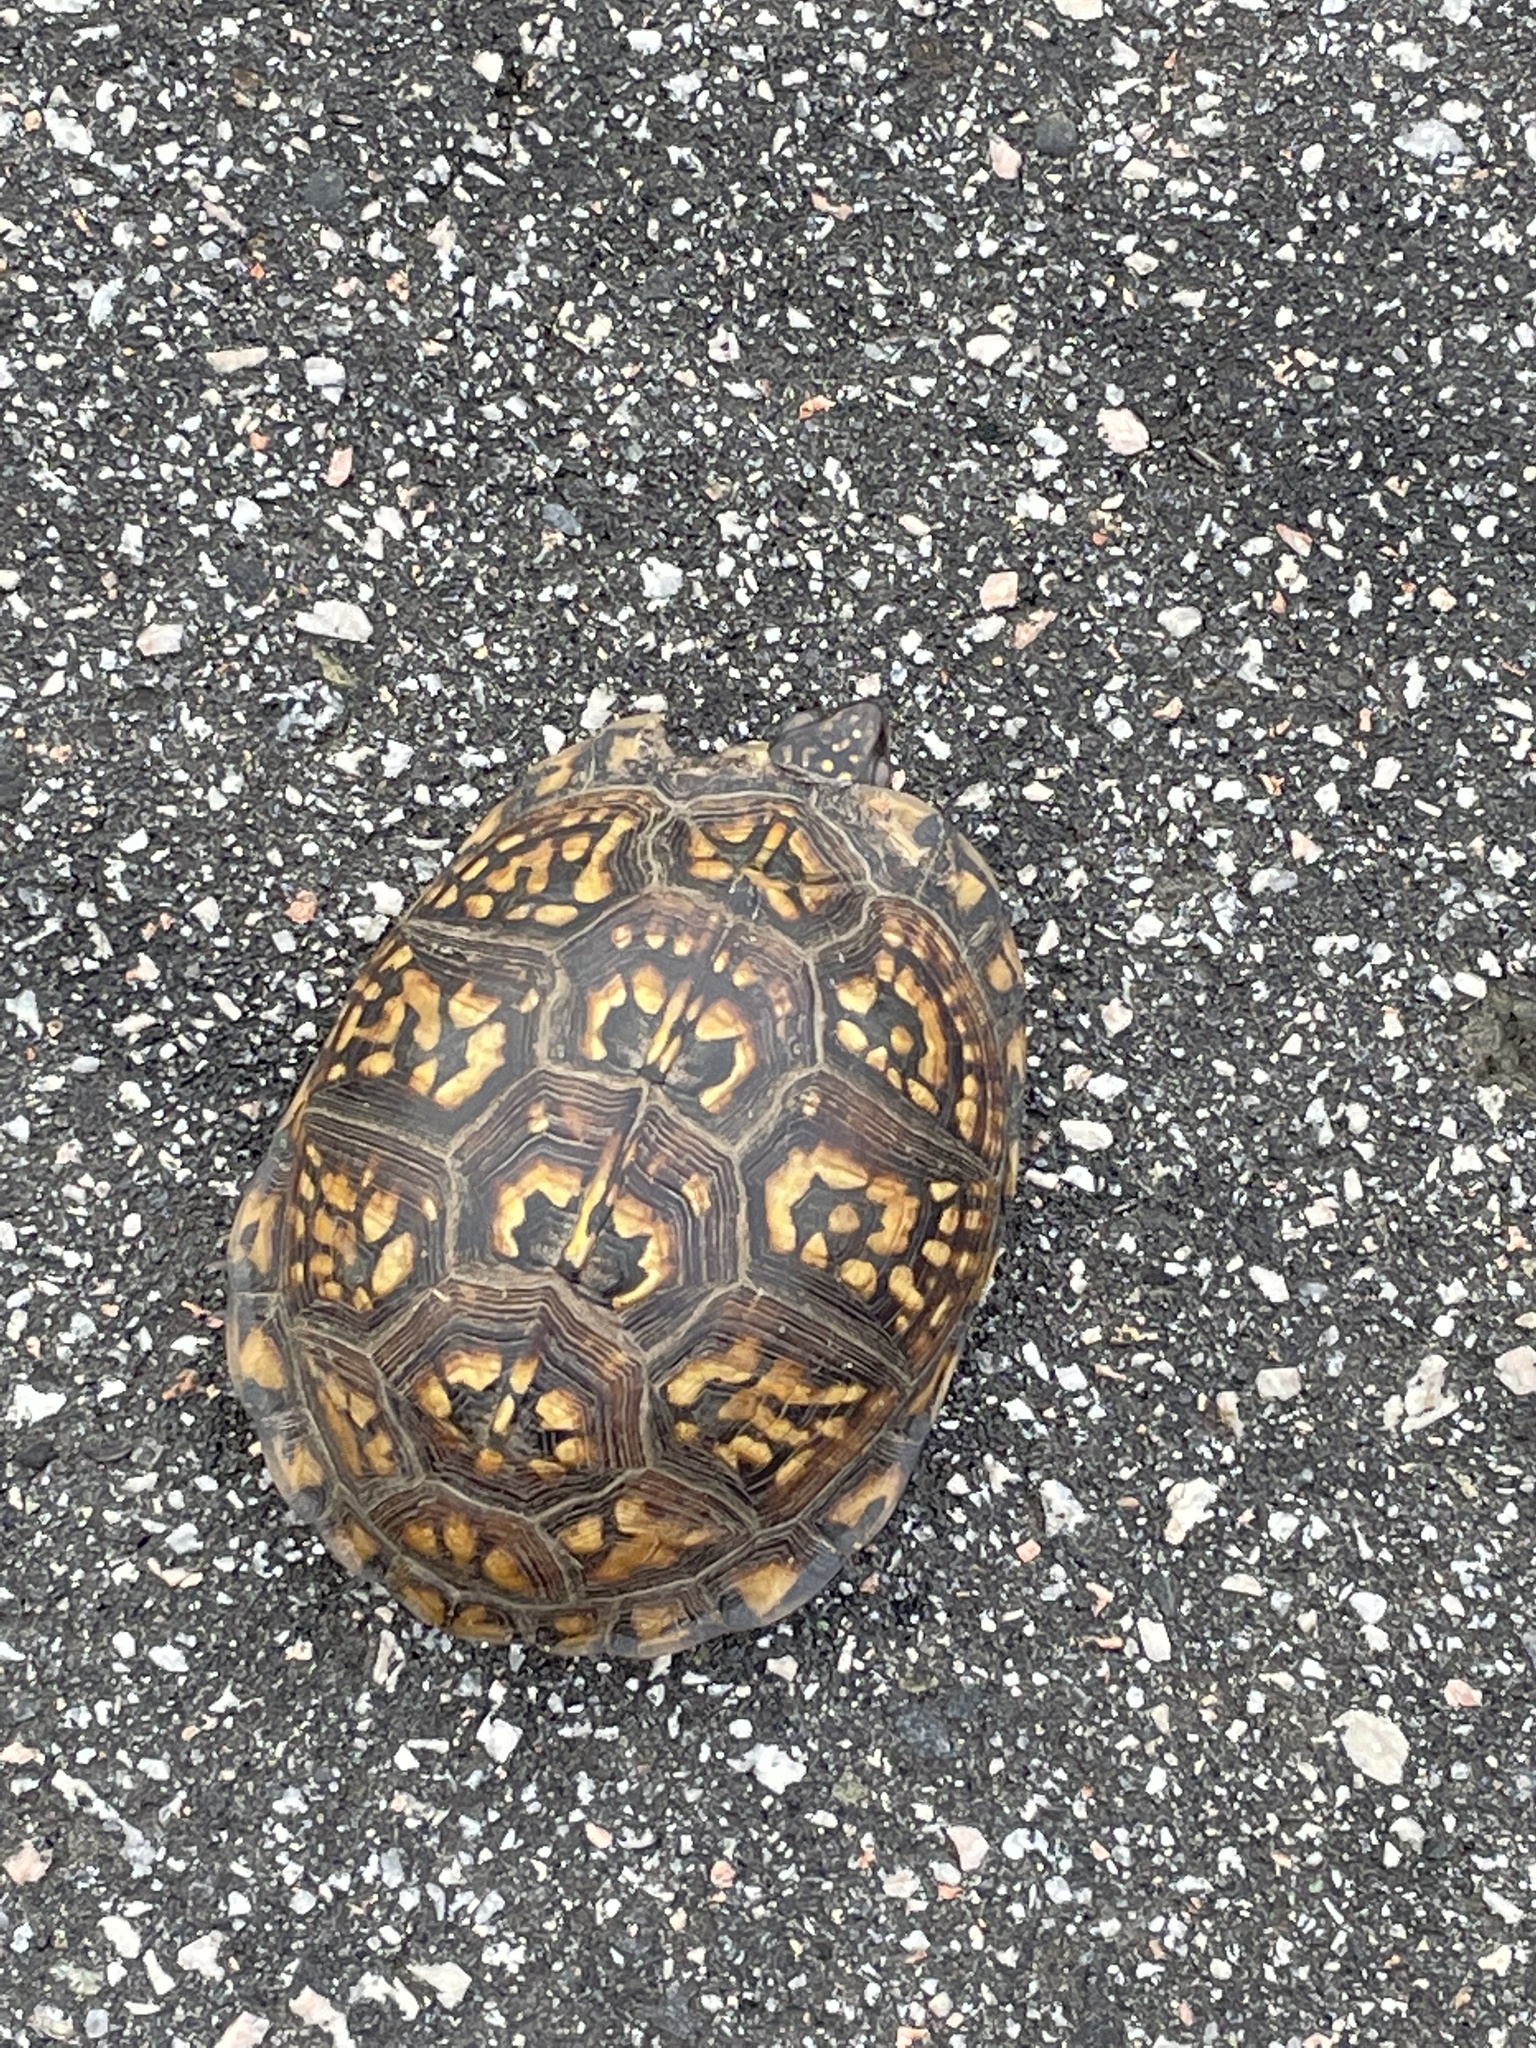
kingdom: Animalia
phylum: Chordata
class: Testudines
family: Emydidae
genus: Terrapene
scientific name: Terrapene carolina
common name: Common box turtle
